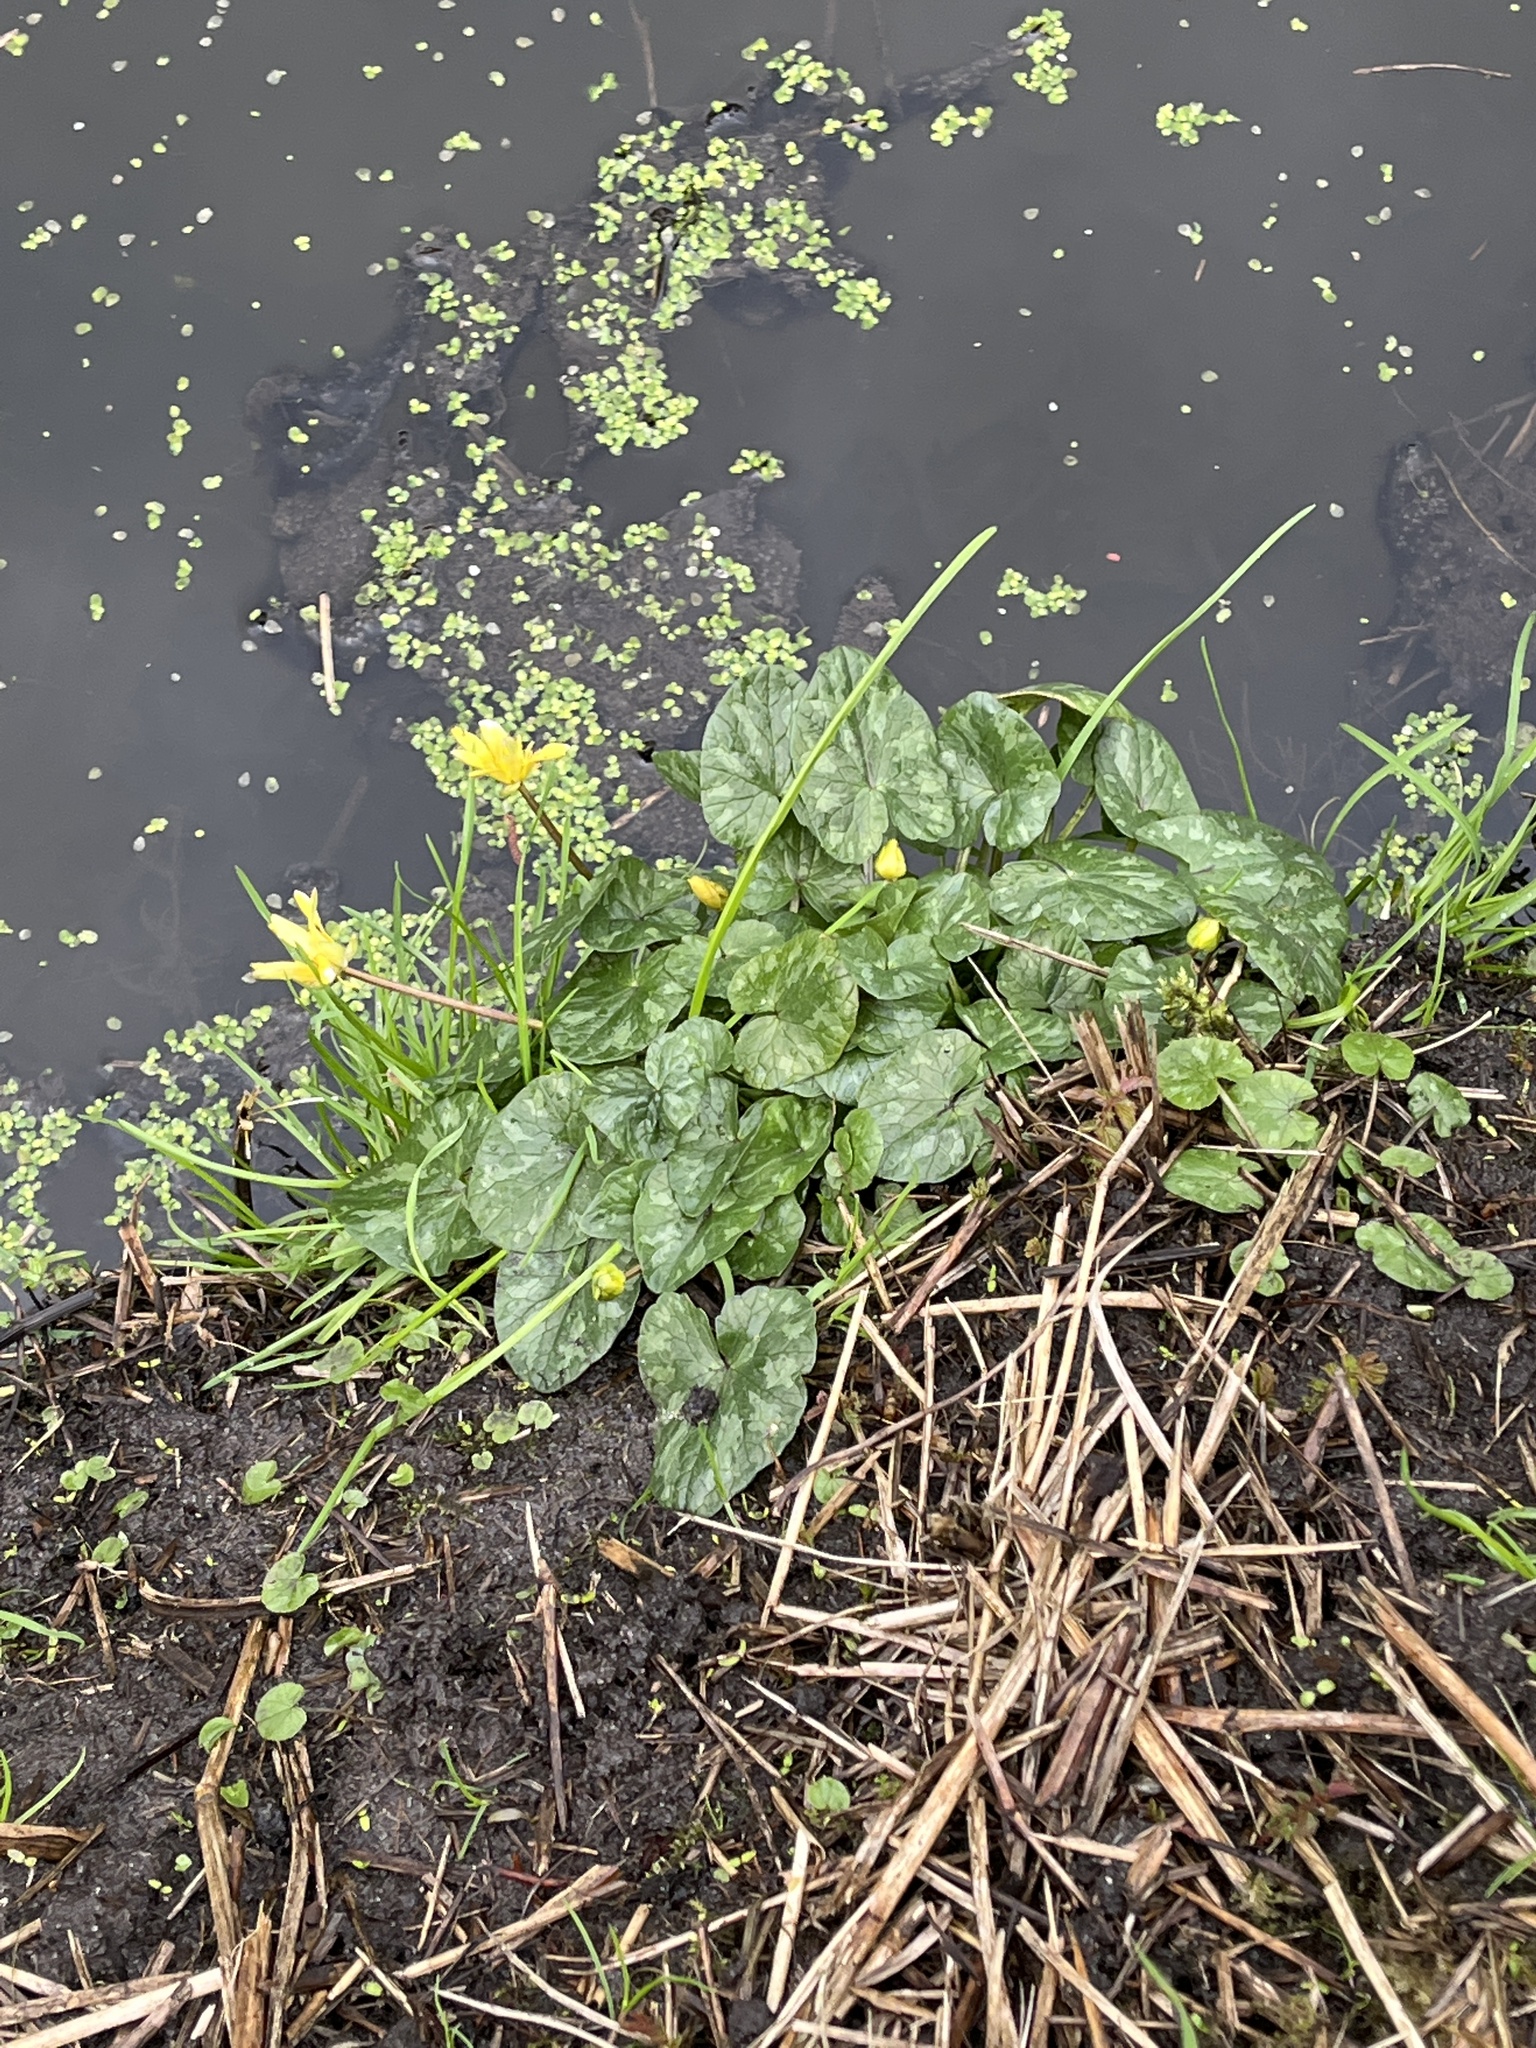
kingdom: Plantae
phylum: Tracheophyta
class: Magnoliopsida
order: Ranunculales
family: Ranunculaceae
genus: Ficaria
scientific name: Ficaria verna
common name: Lesser celandine
